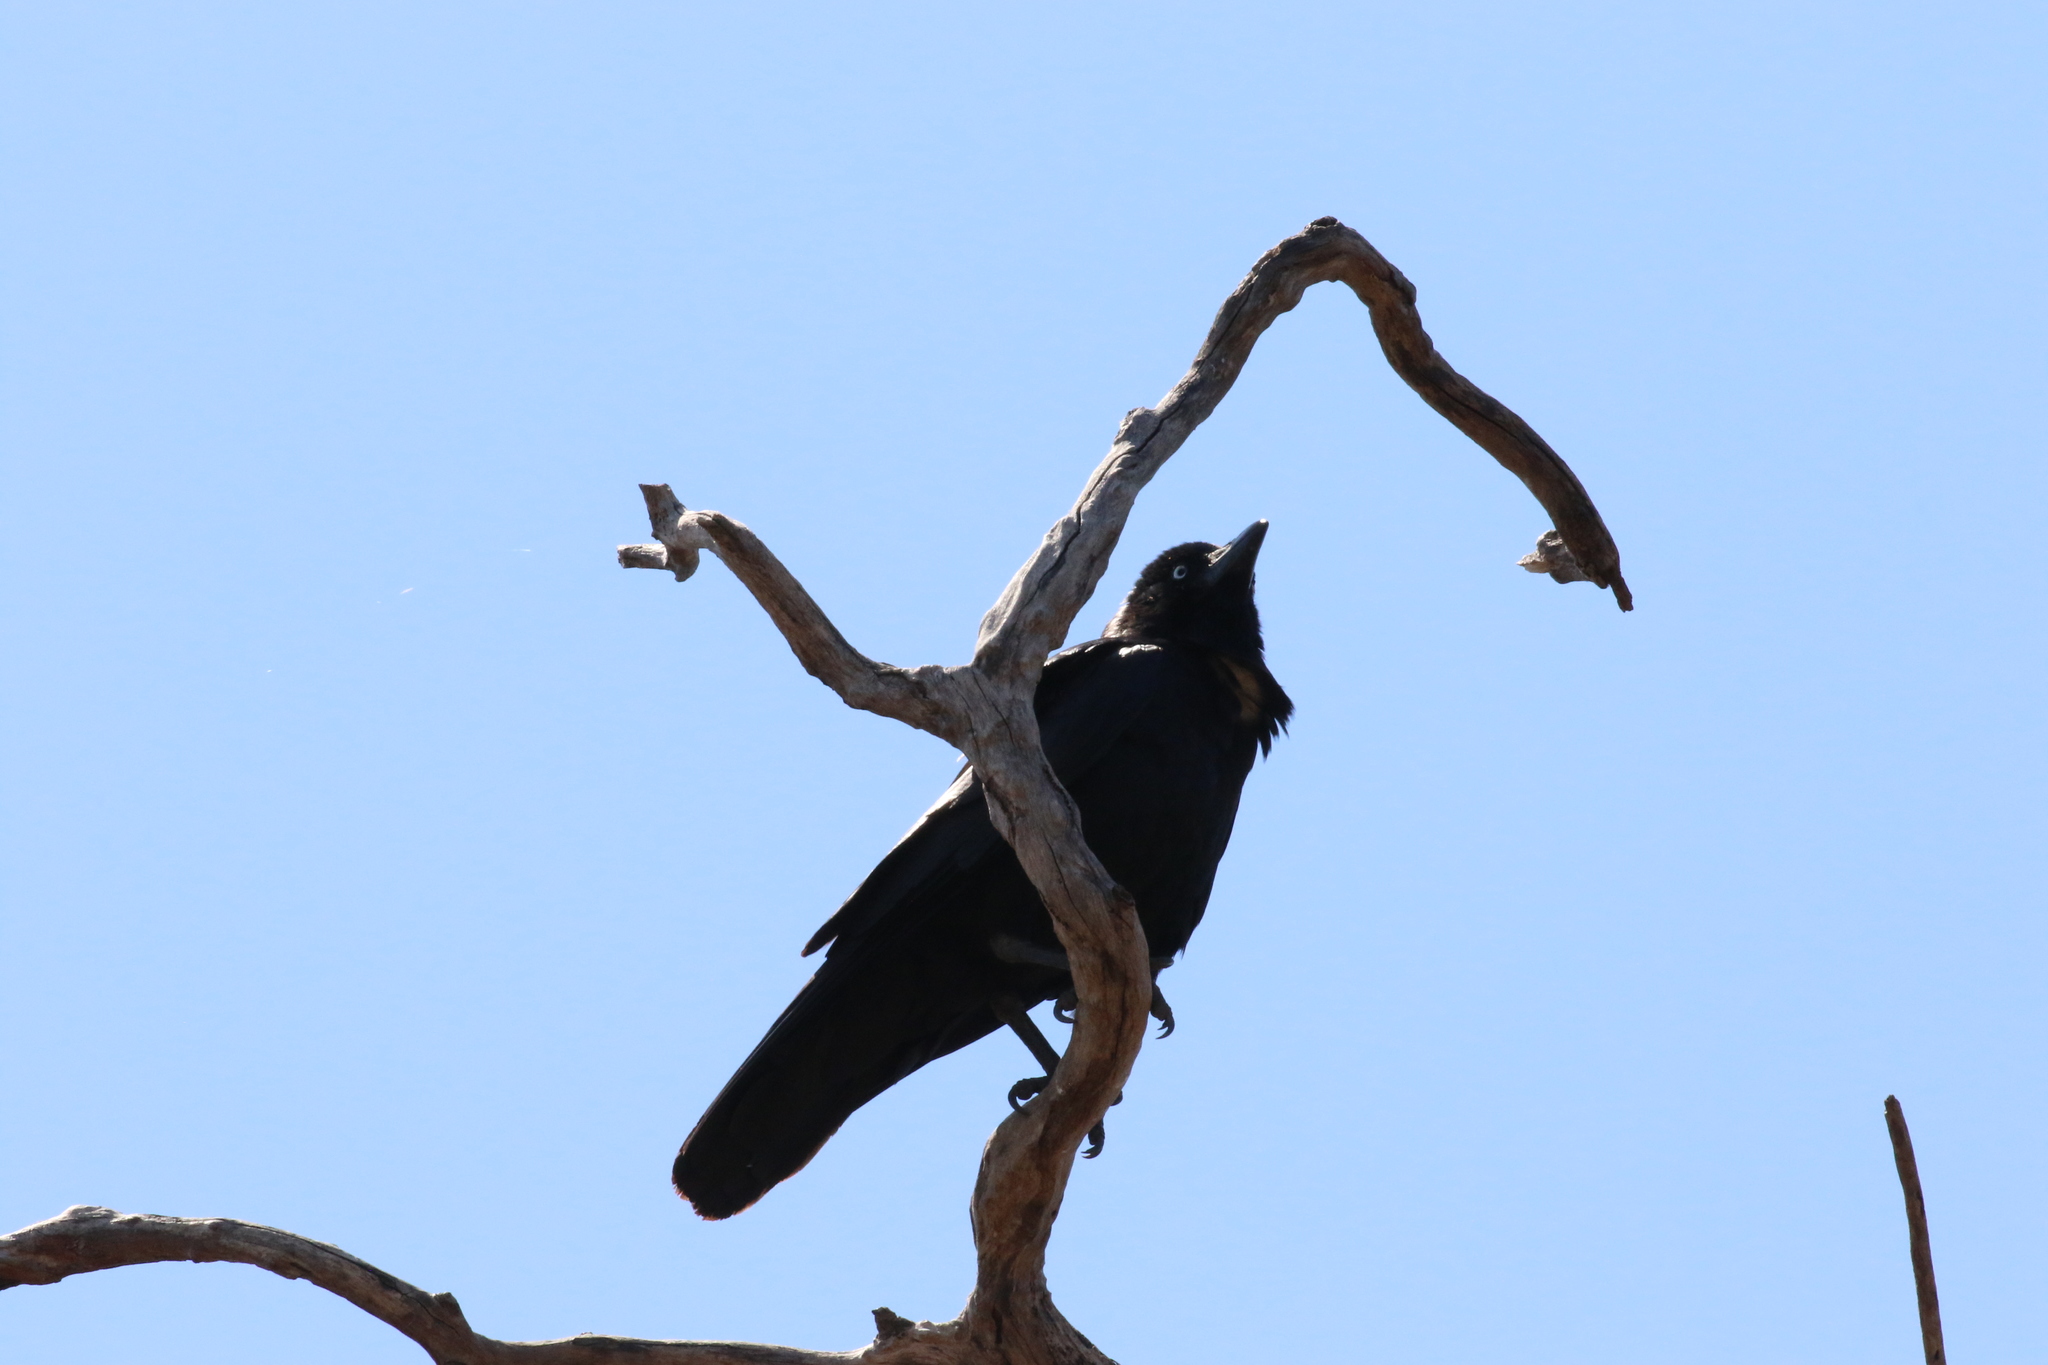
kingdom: Animalia
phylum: Chordata
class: Aves
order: Passeriformes
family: Corvidae
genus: Corvus
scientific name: Corvus orru
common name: Torresian crow
